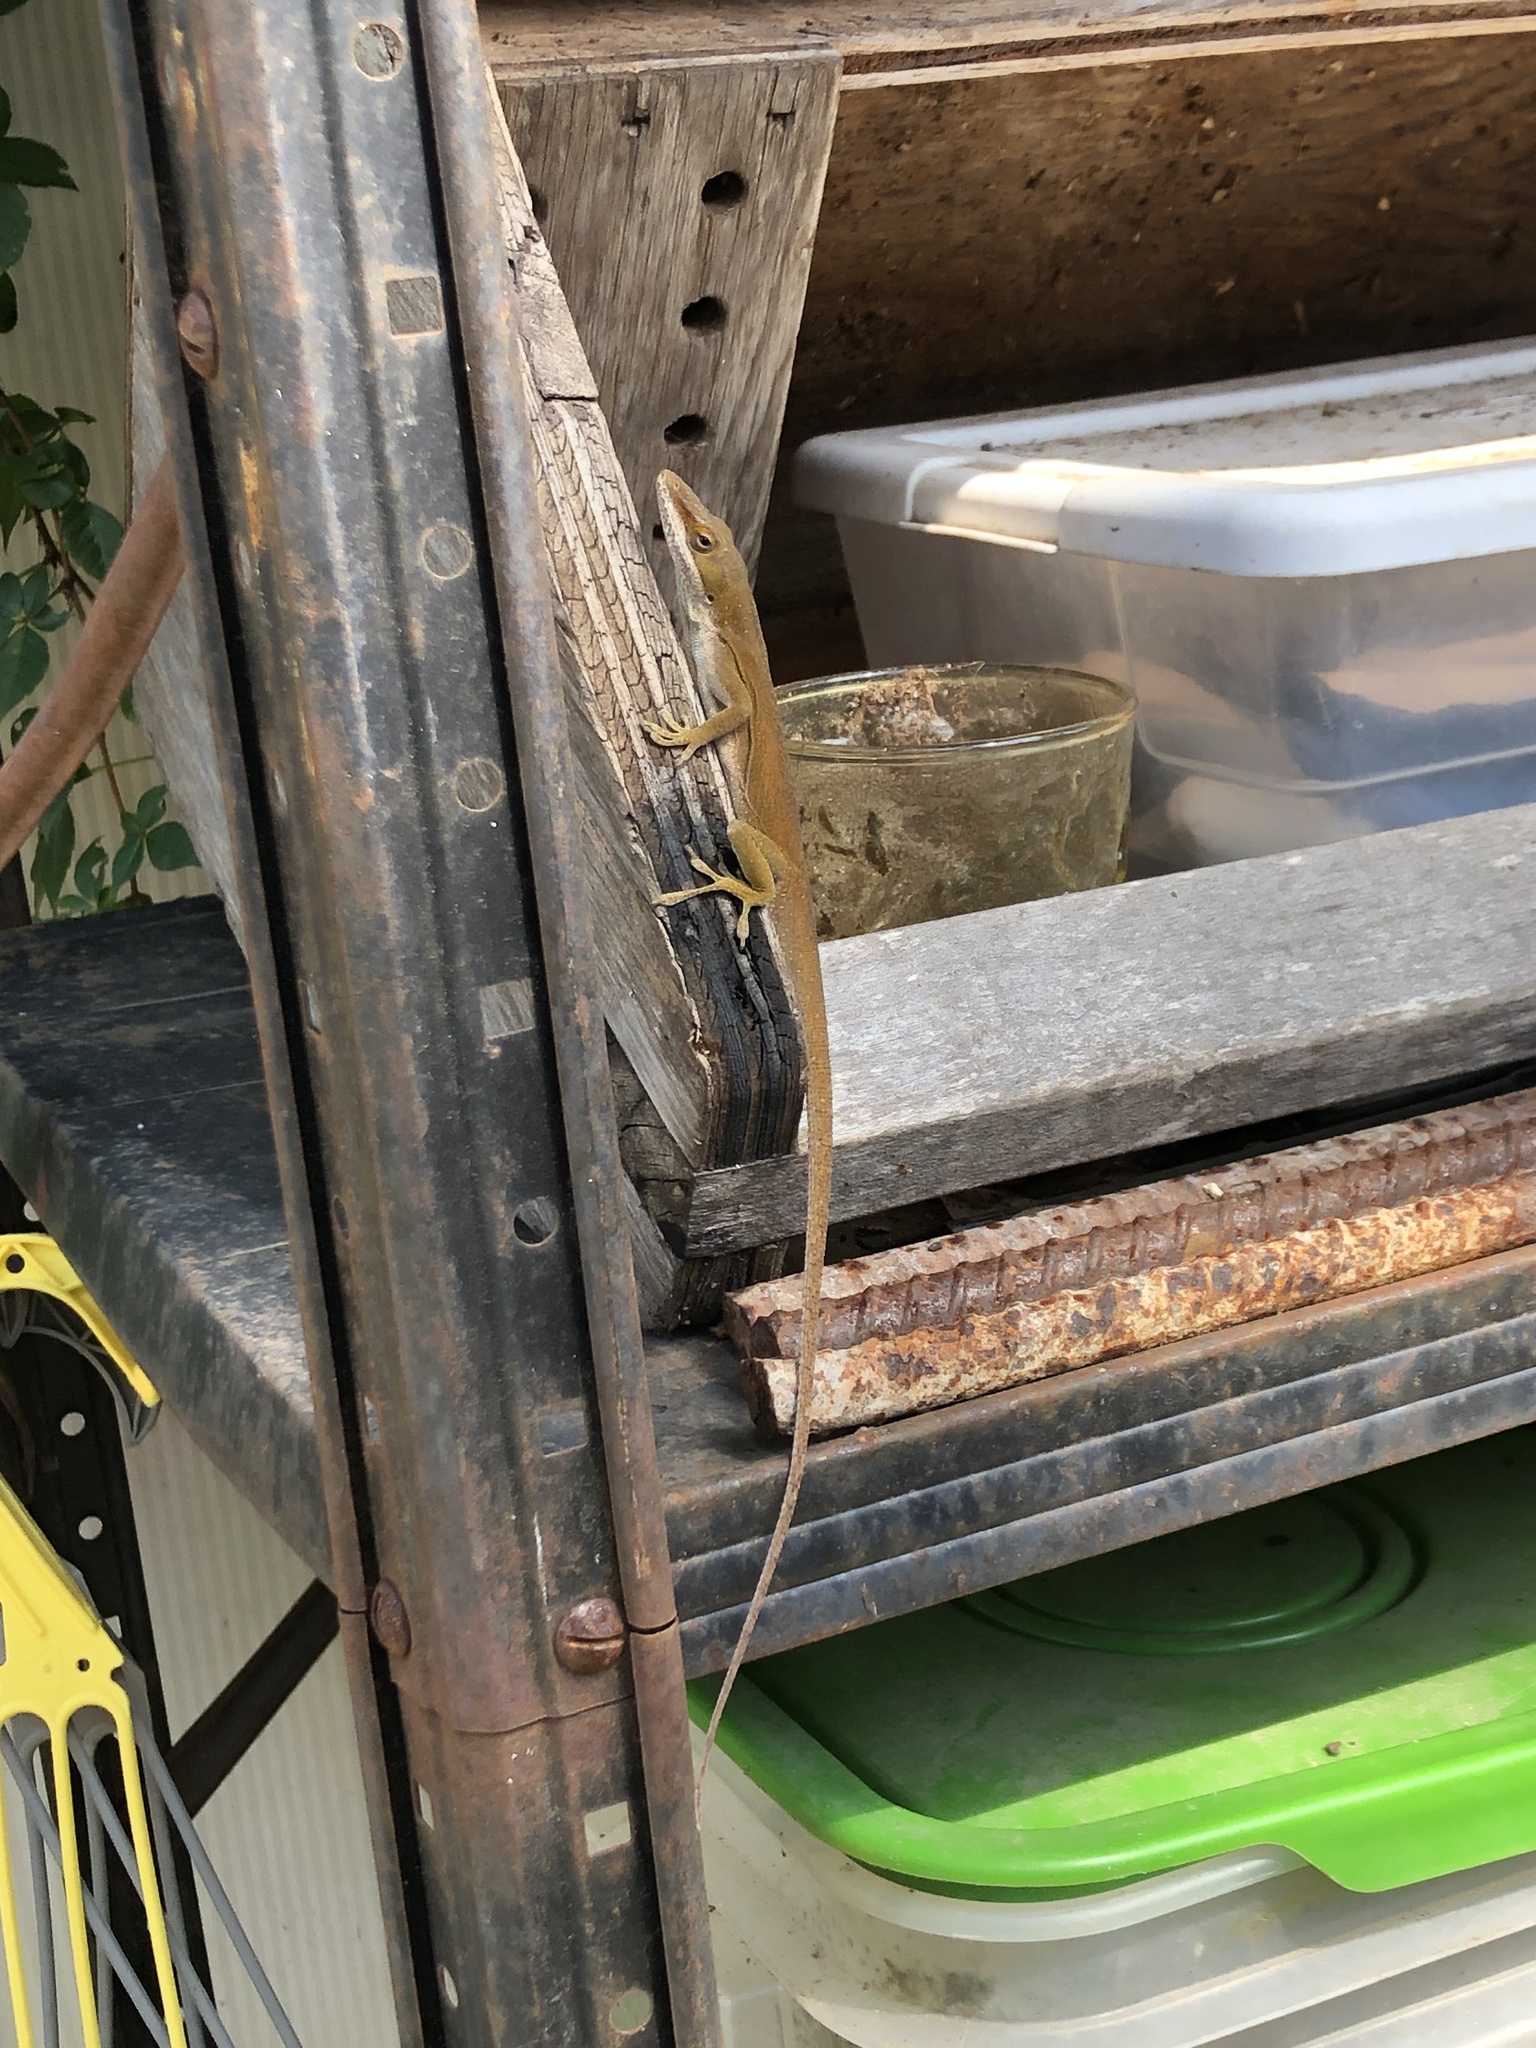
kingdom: Animalia
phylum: Chordata
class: Squamata
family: Dactyloidae
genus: Anolis
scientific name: Anolis carolinensis
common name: Green anole
